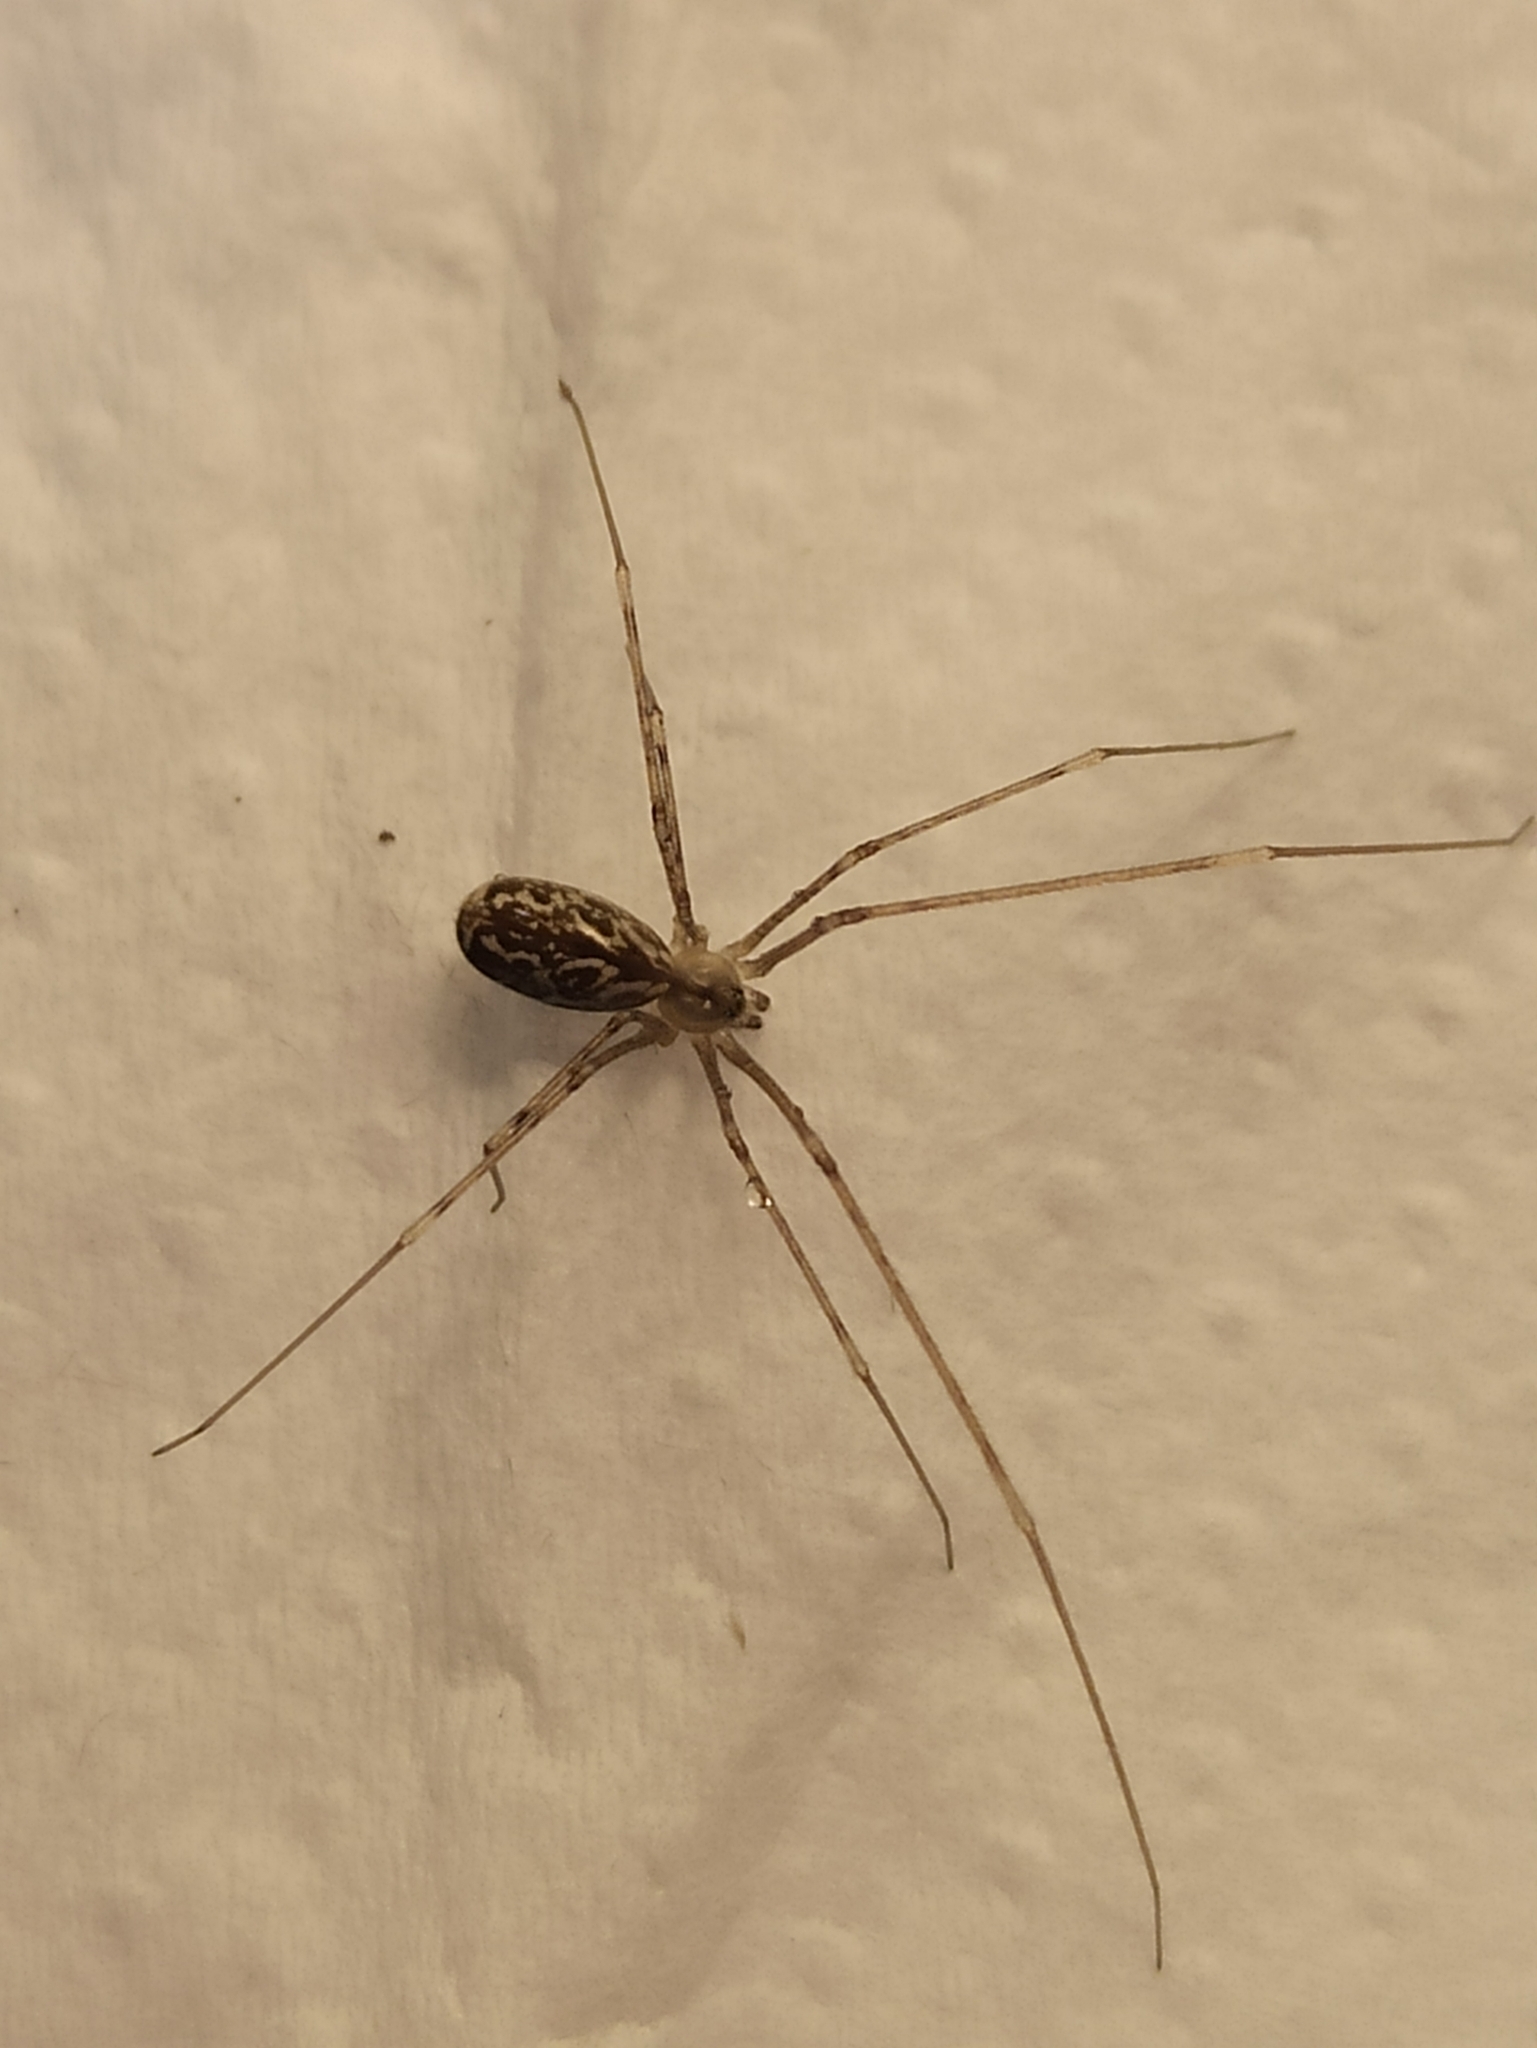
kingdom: Animalia
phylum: Arthropoda
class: Arachnida
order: Araneae
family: Pholcidae
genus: Holocnemus
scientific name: Holocnemus pluchei
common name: Marbled cellar spider
